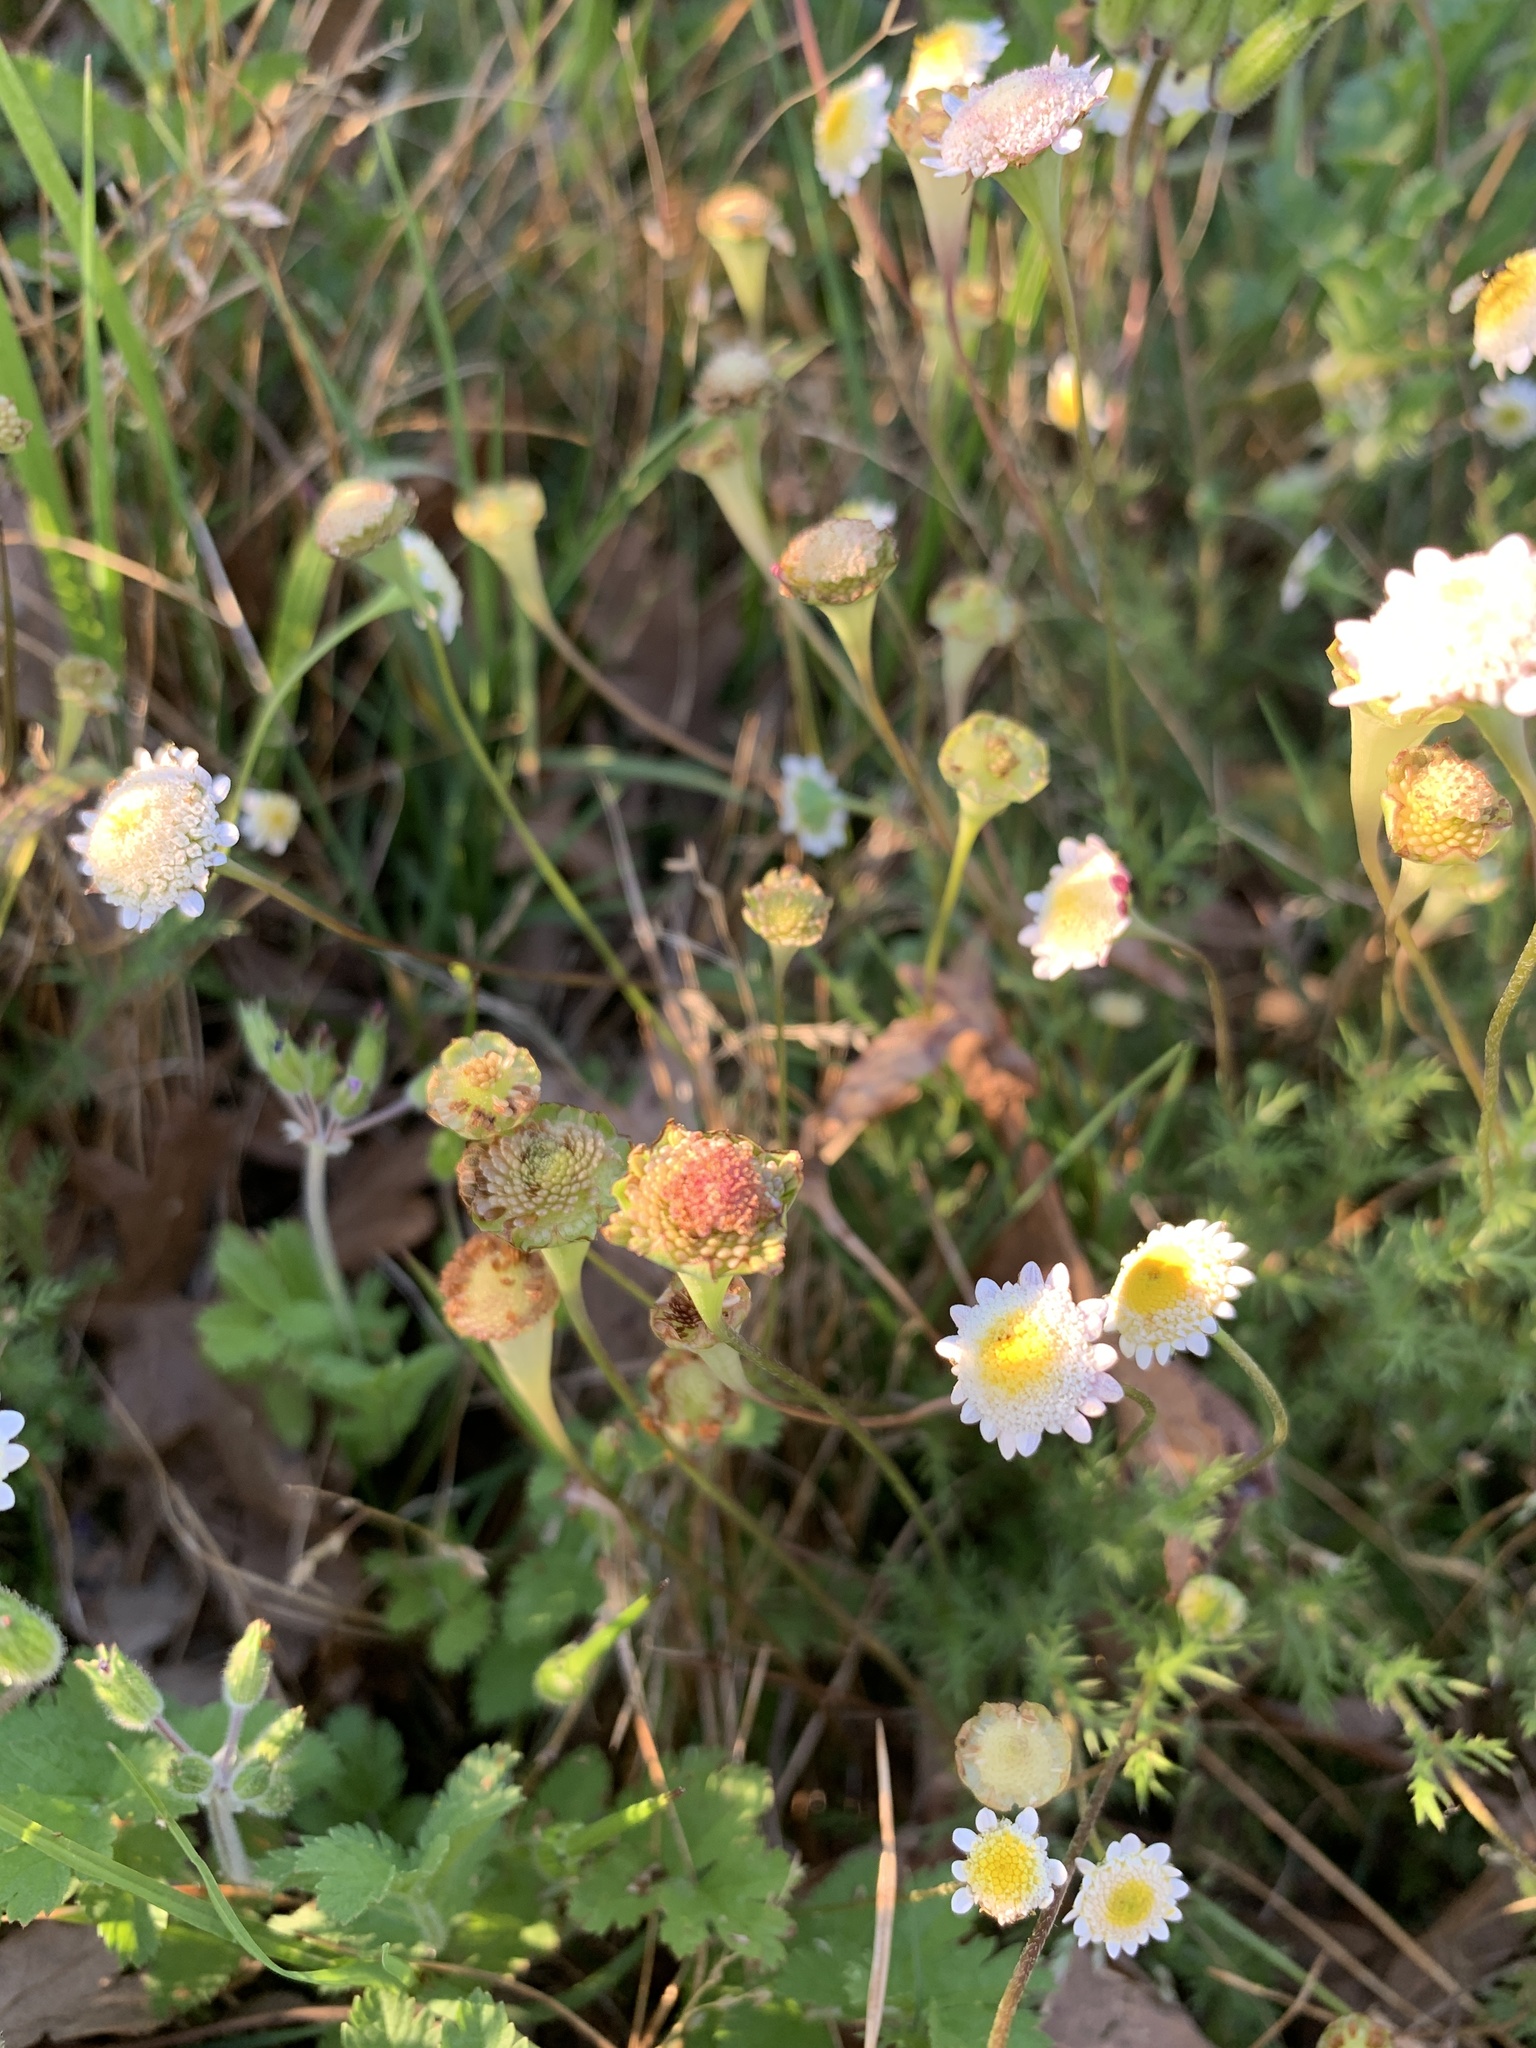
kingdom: Plantae
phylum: Tracheophyta
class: Magnoliopsida
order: Asterales
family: Asteraceae
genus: Cotula
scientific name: Cotula turbinata
